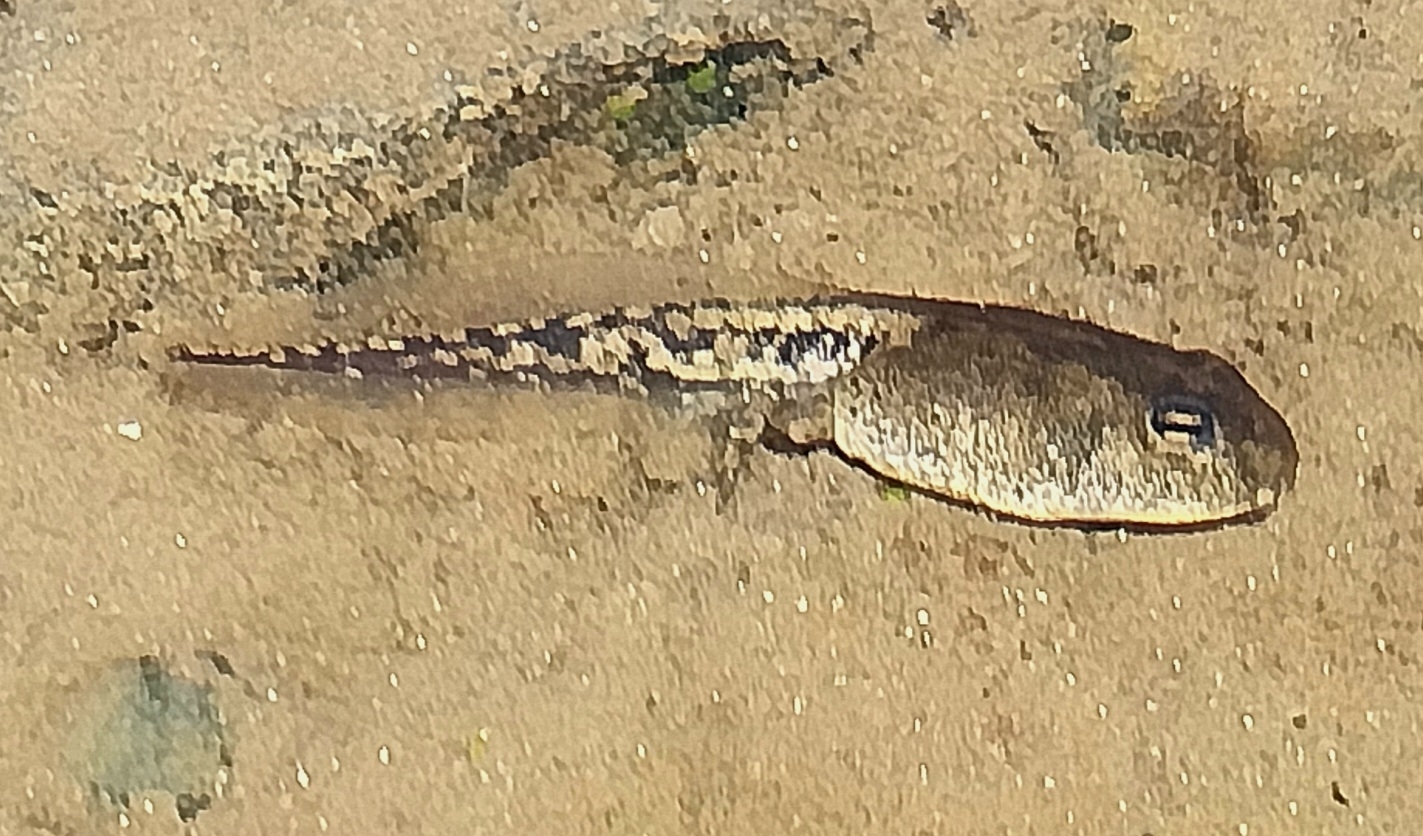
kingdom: Animalia
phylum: Chordata
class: Amphibia
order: Anura
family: Bufonidae
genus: Anaxyrus
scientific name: Anaxyrus boreas
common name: Western toad
